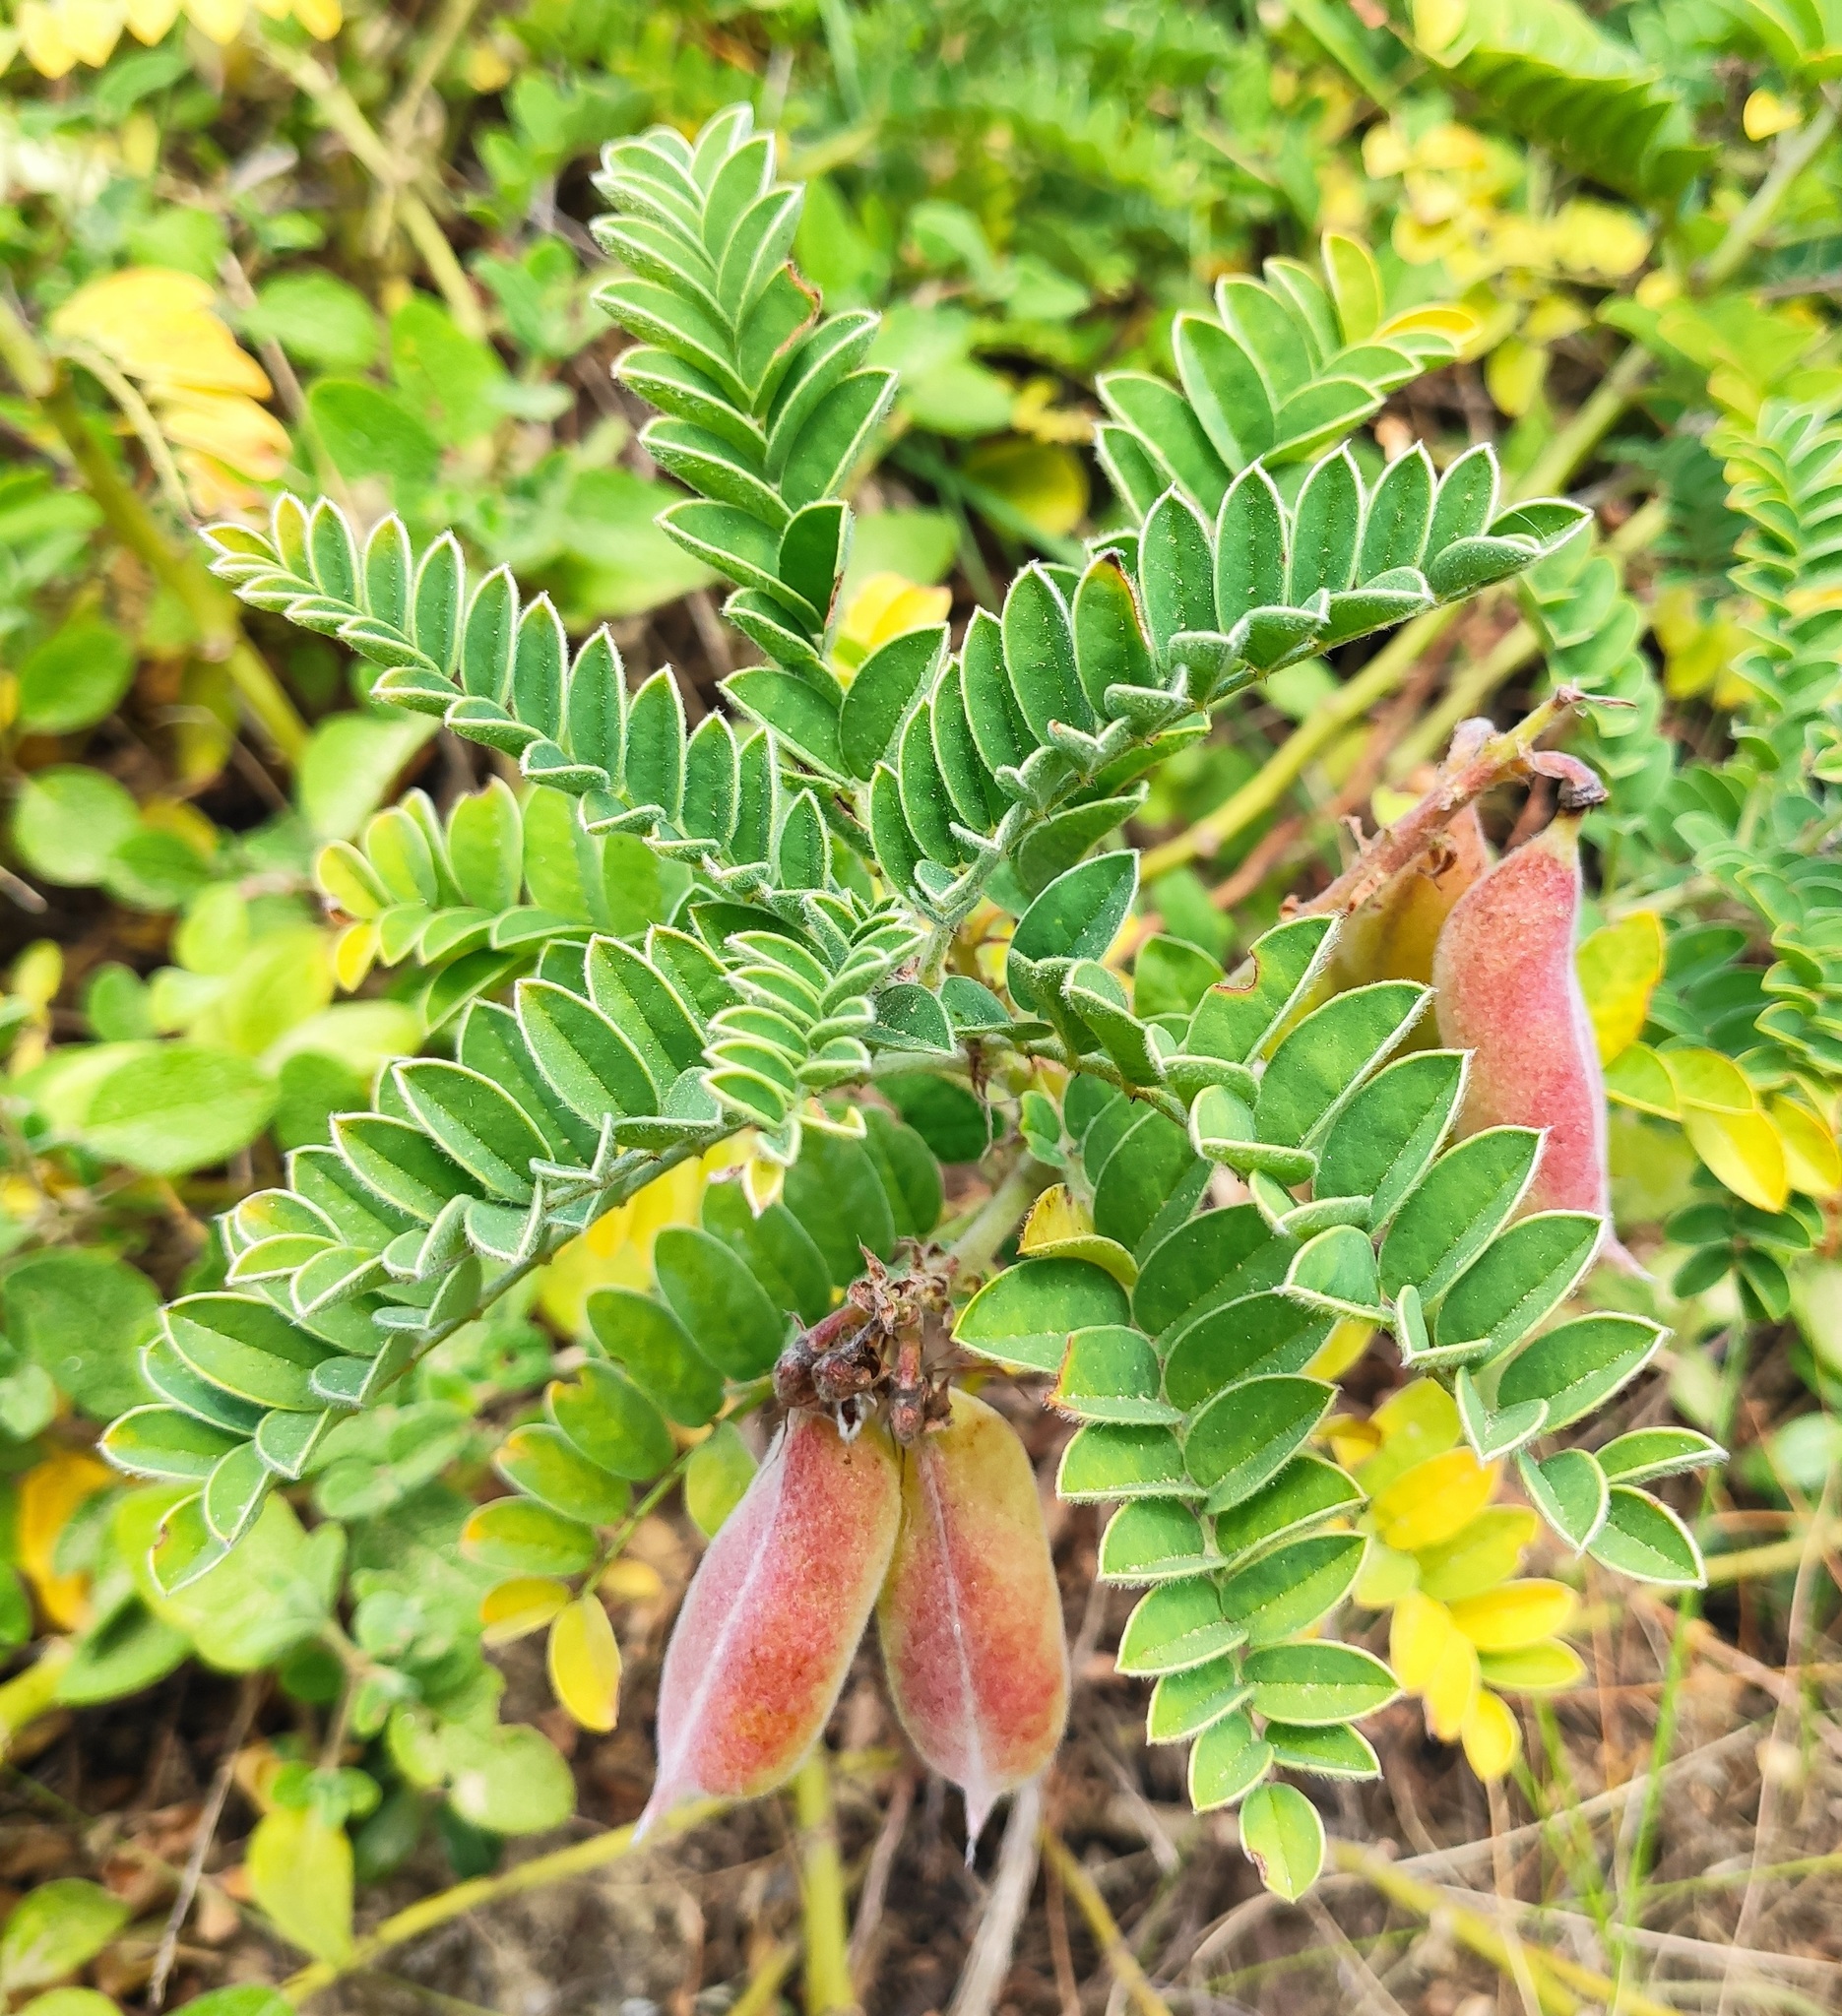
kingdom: Plantae
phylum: Tracheophyta
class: Magnoliopsida
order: Fabales
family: Fabaceae
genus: Erophaca
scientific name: Erophaca baetica
